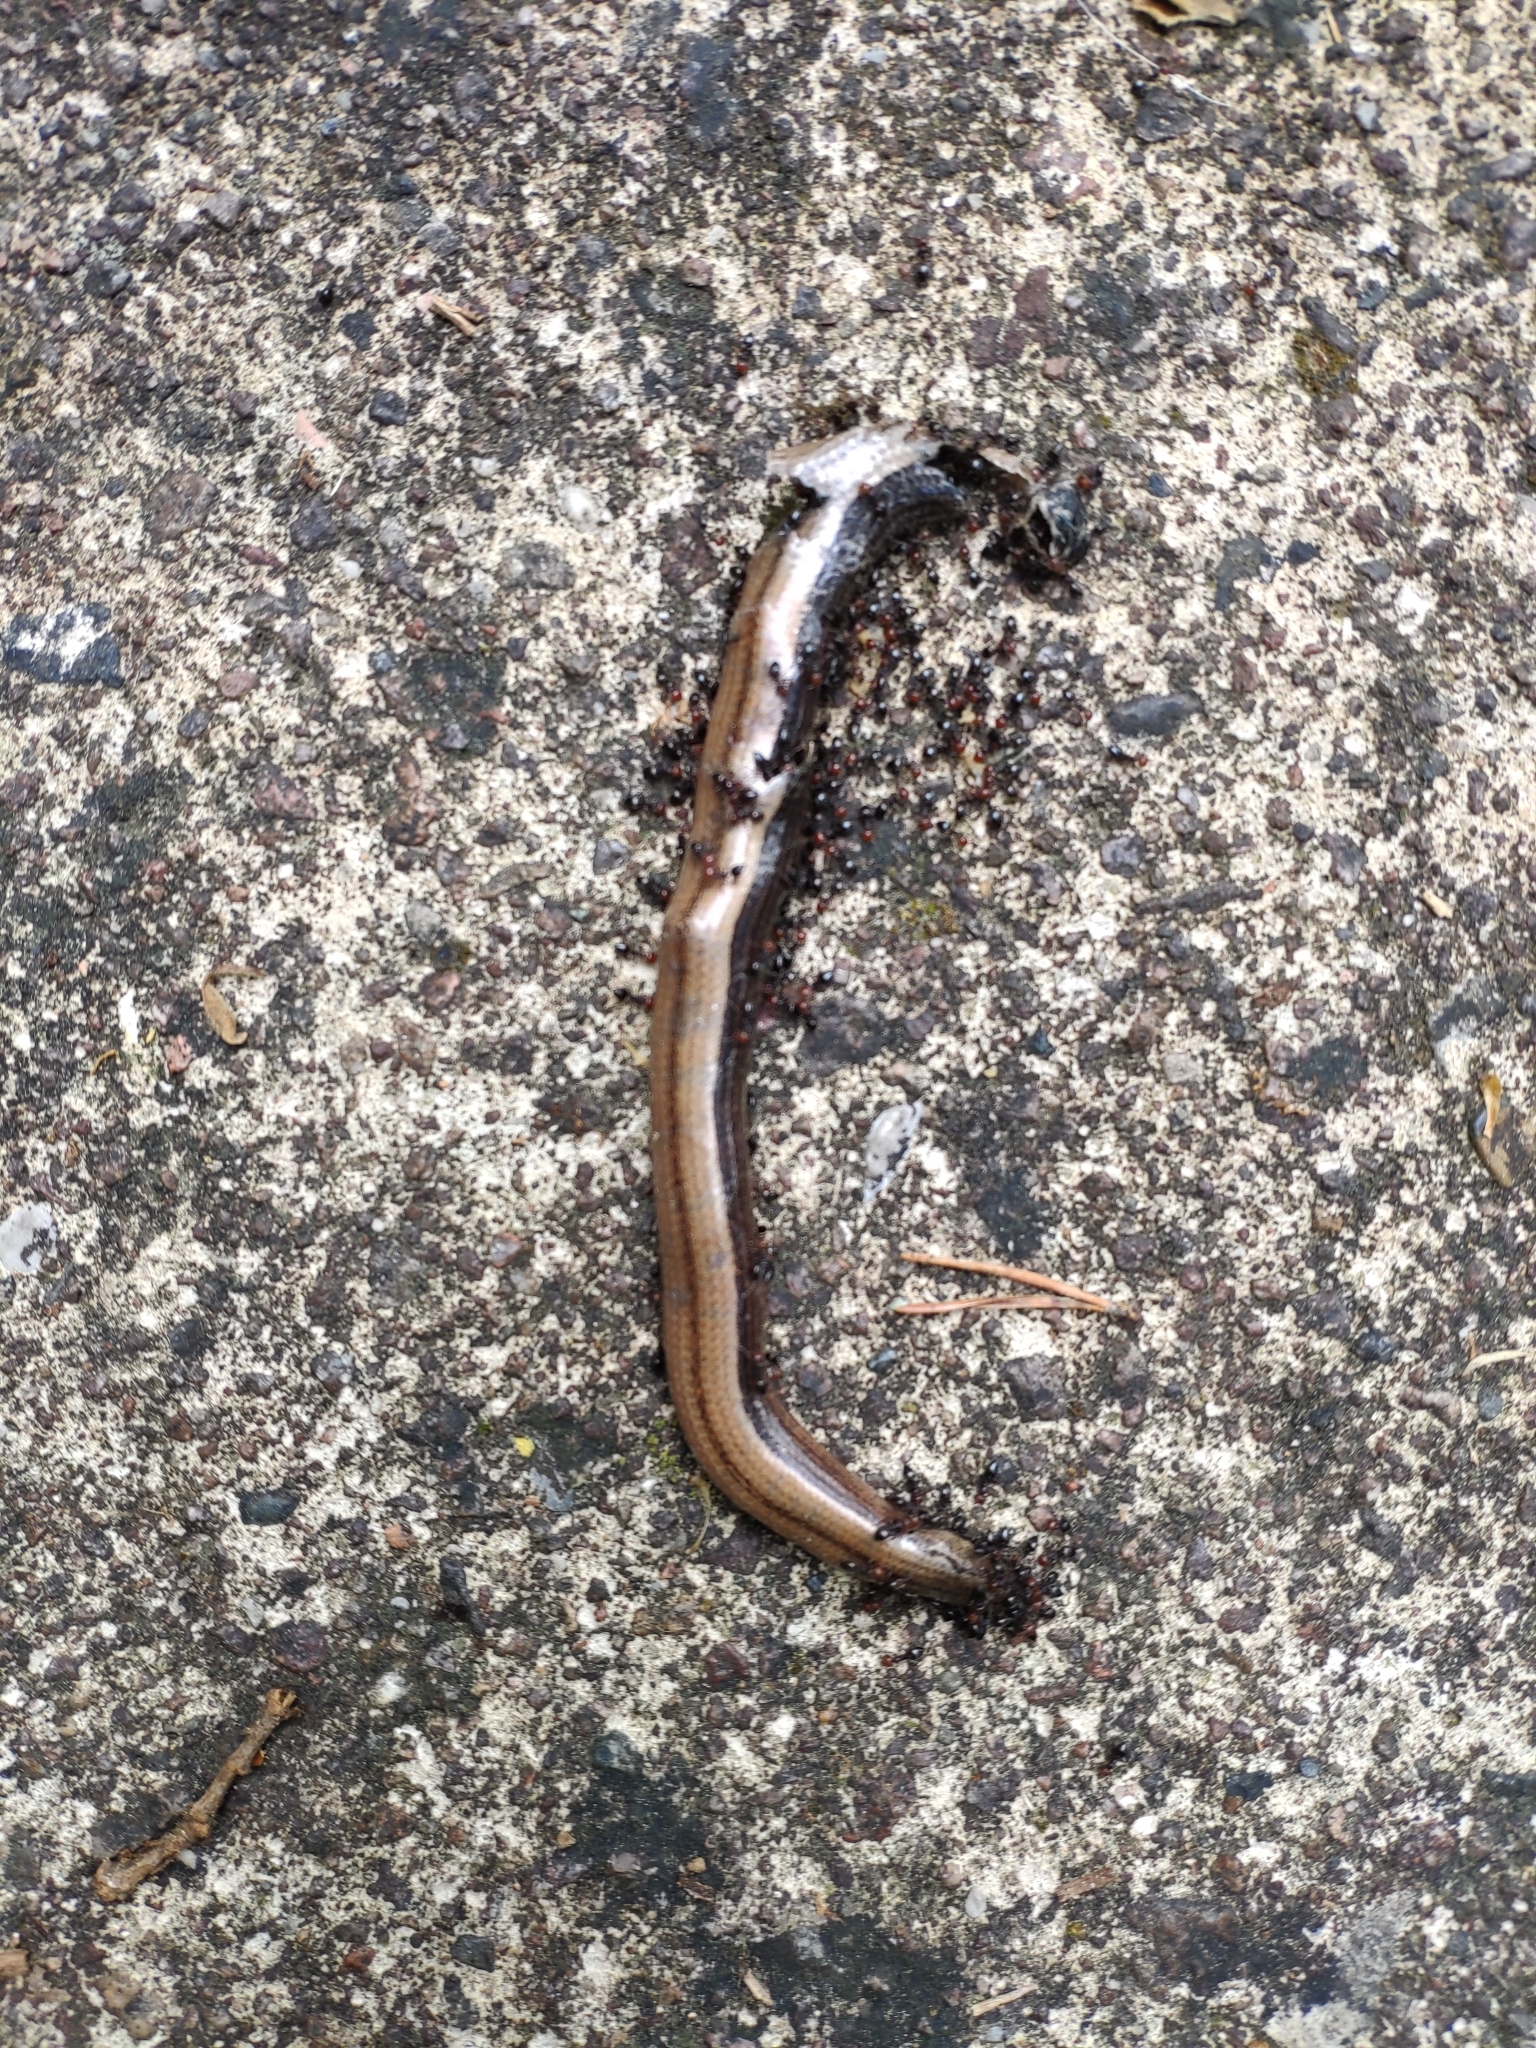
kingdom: Animalia
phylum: Chordata
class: Squamata
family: Anguidae
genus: Anguis
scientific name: Anguis veronensis
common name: Italian slow worm
